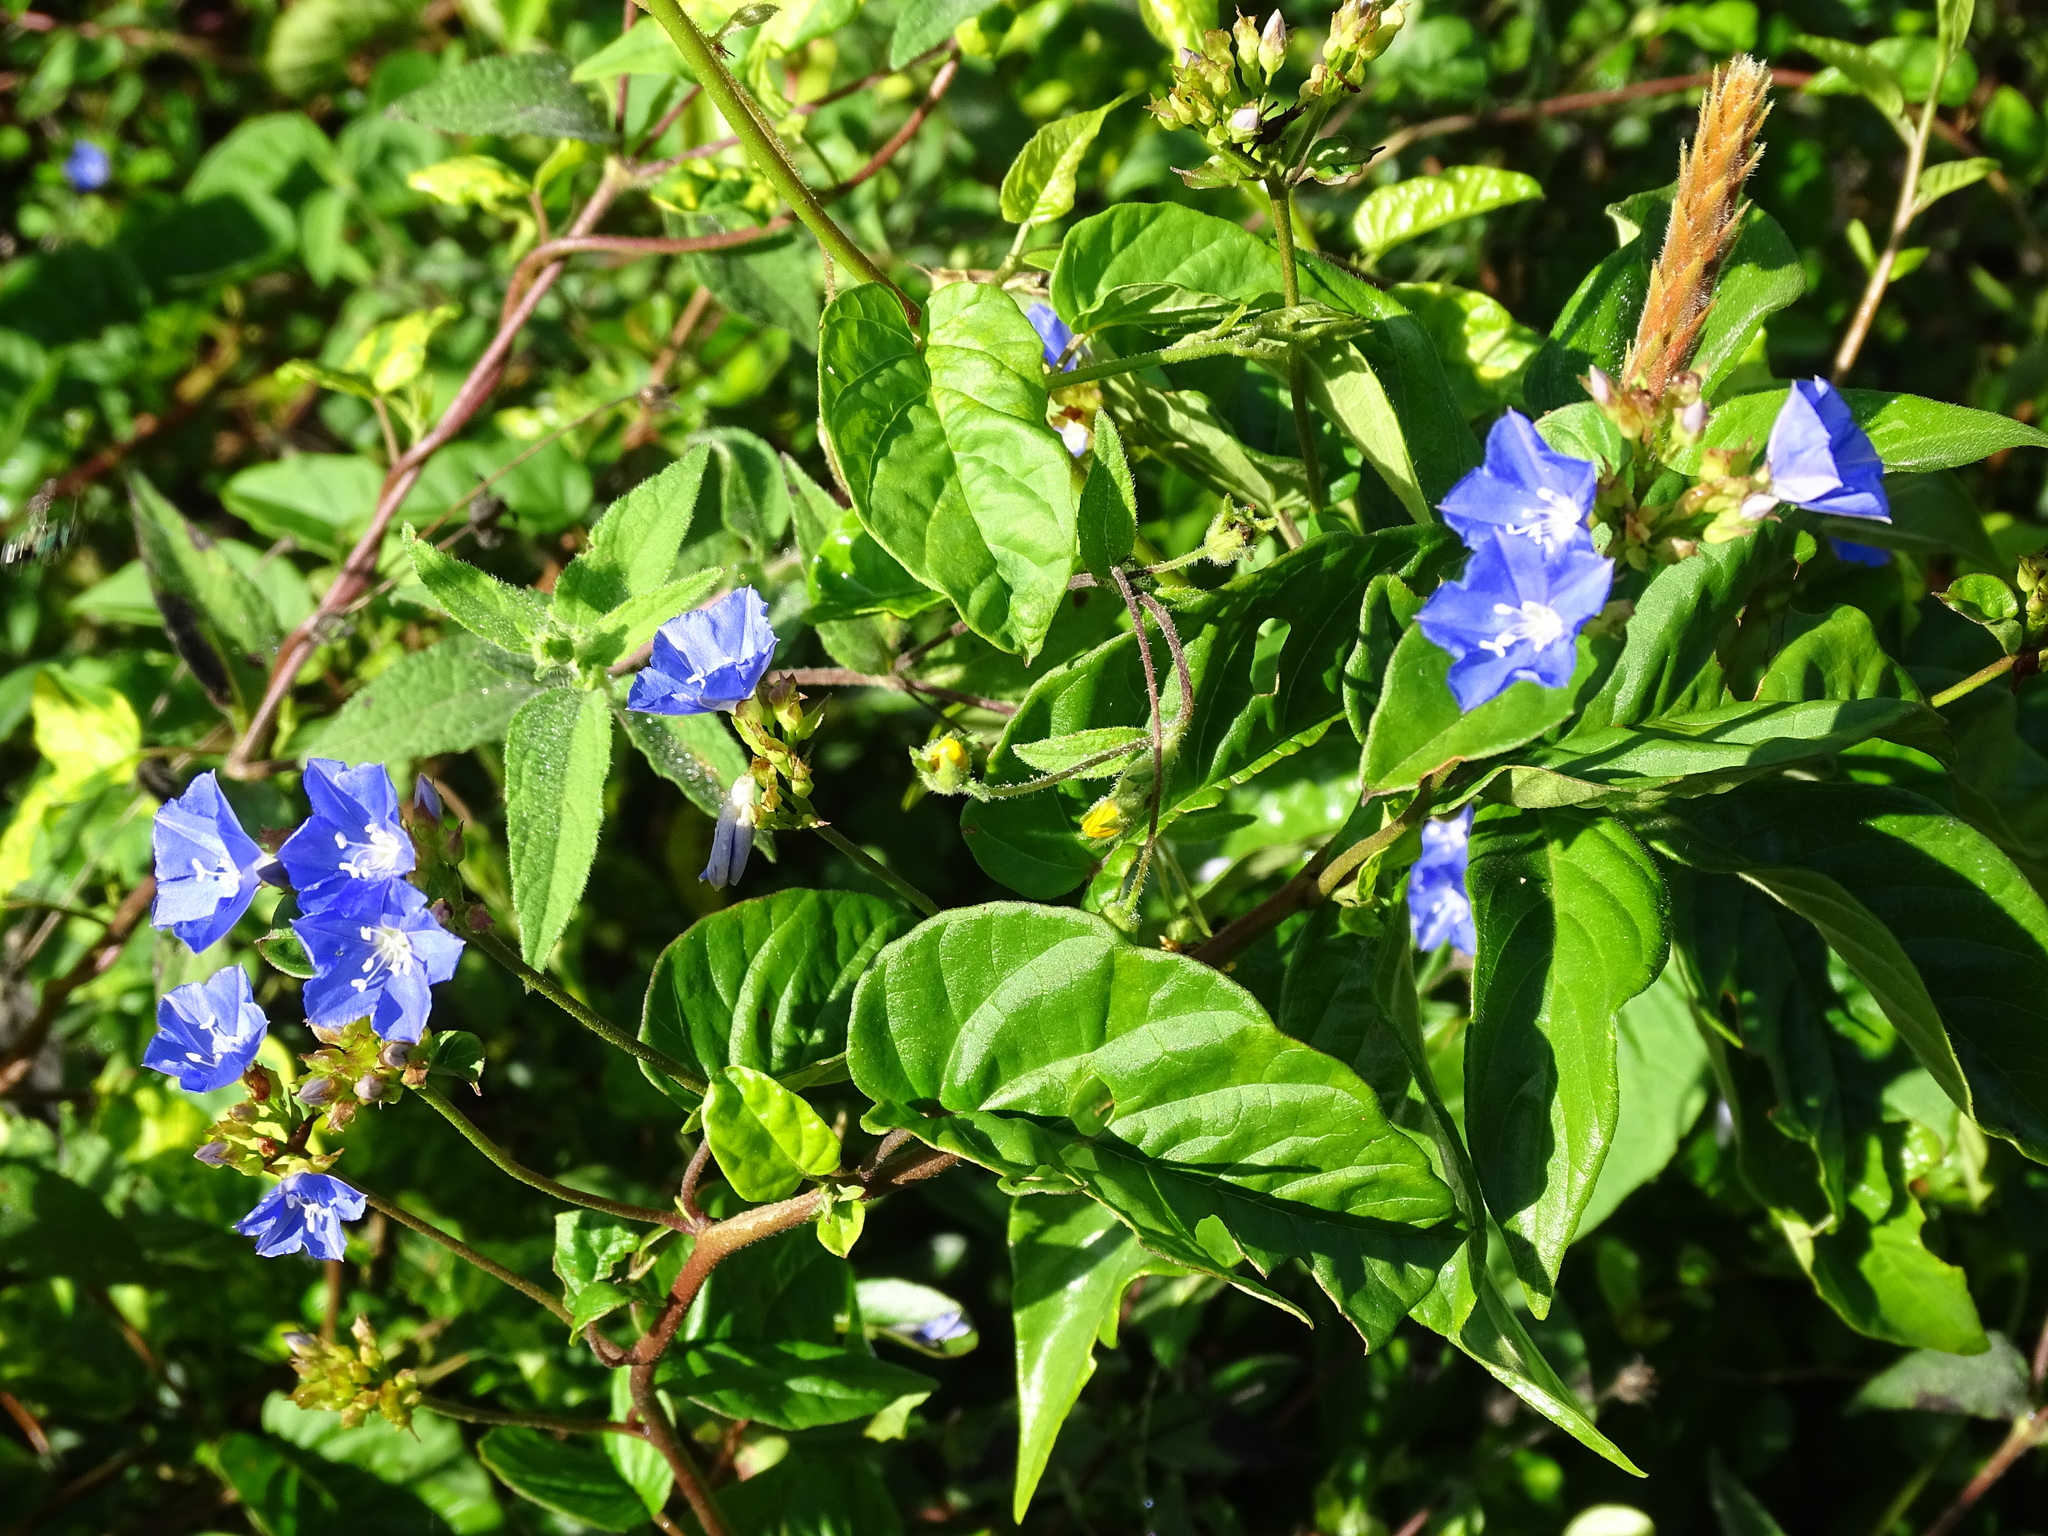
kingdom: Plantae
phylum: Tracheophyta
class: Magnoliopsida
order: Solanales
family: Convolvulaceae
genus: Jacquemontia
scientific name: Jacquemontia pentanthos
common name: Skyblue clustervine
